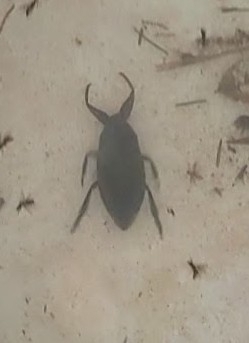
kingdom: Animalia
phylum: Arthropoda
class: Insecta
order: Hemiptera
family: Belostomatidae
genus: Lethocerus
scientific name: Lethocerus
